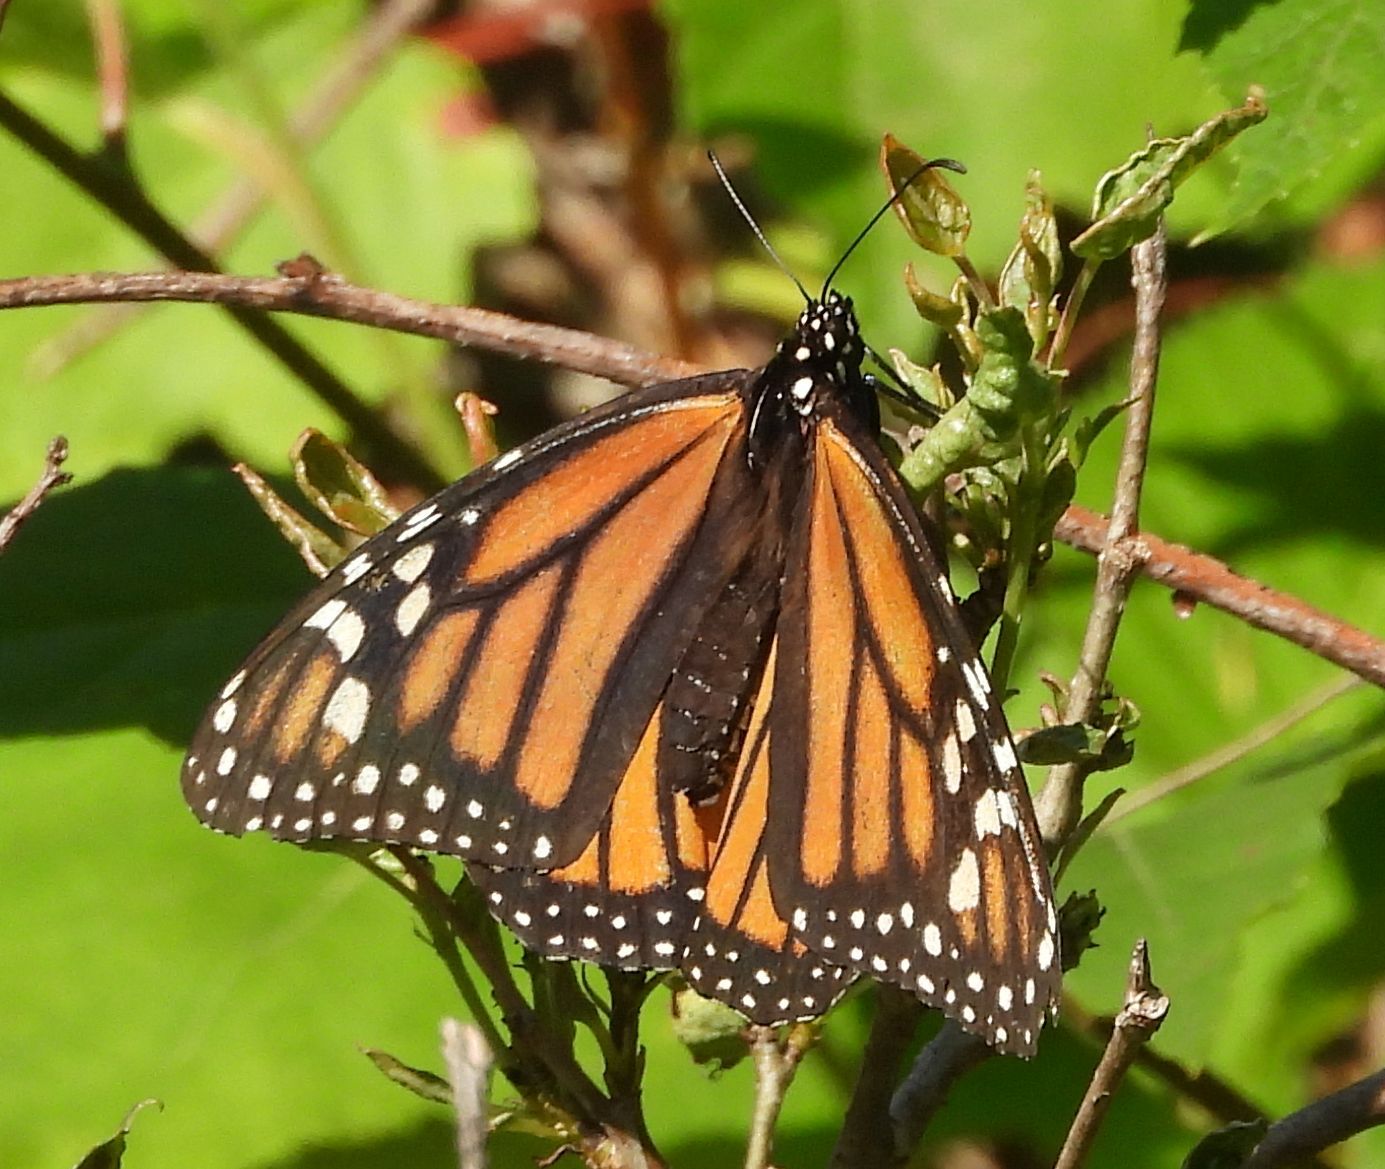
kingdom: Animalia
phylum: Arthropoda
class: Insecta
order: Lepidoptera
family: Nymphalidae
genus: Danaus
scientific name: Danaus plexippus
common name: Monarch
